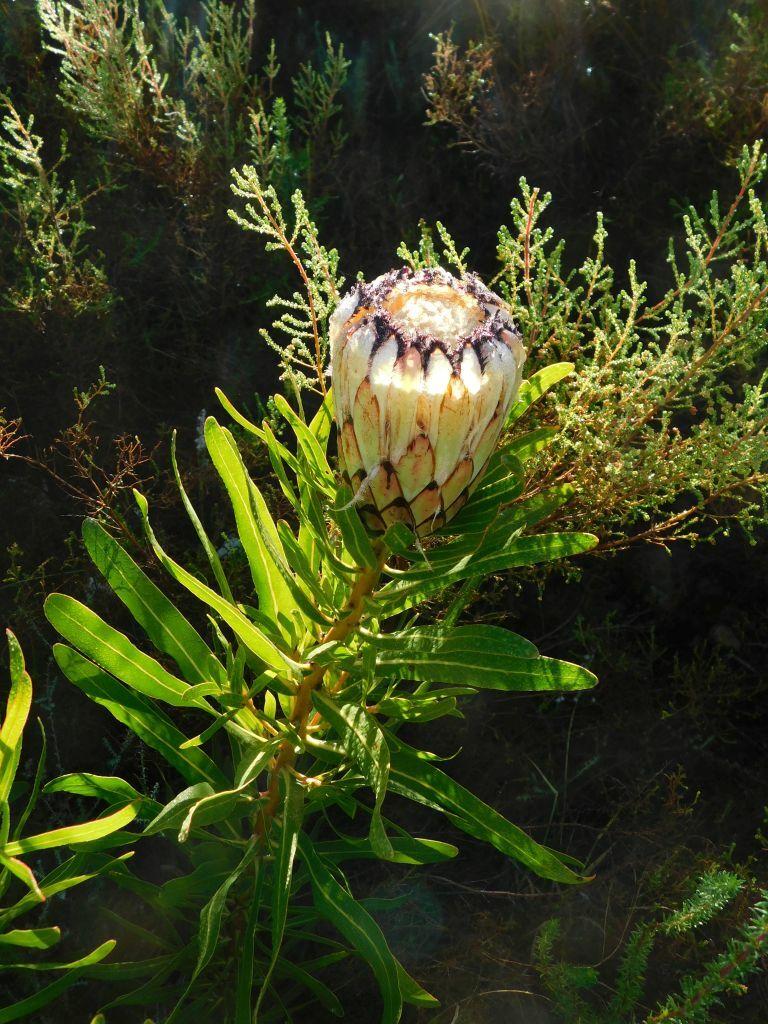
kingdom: Plantae
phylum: Tracheophyta
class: Magnoliopsida
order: Proteales
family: Proteaceae
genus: Protea
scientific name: Protea neriifolia
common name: Blue sugarbush
